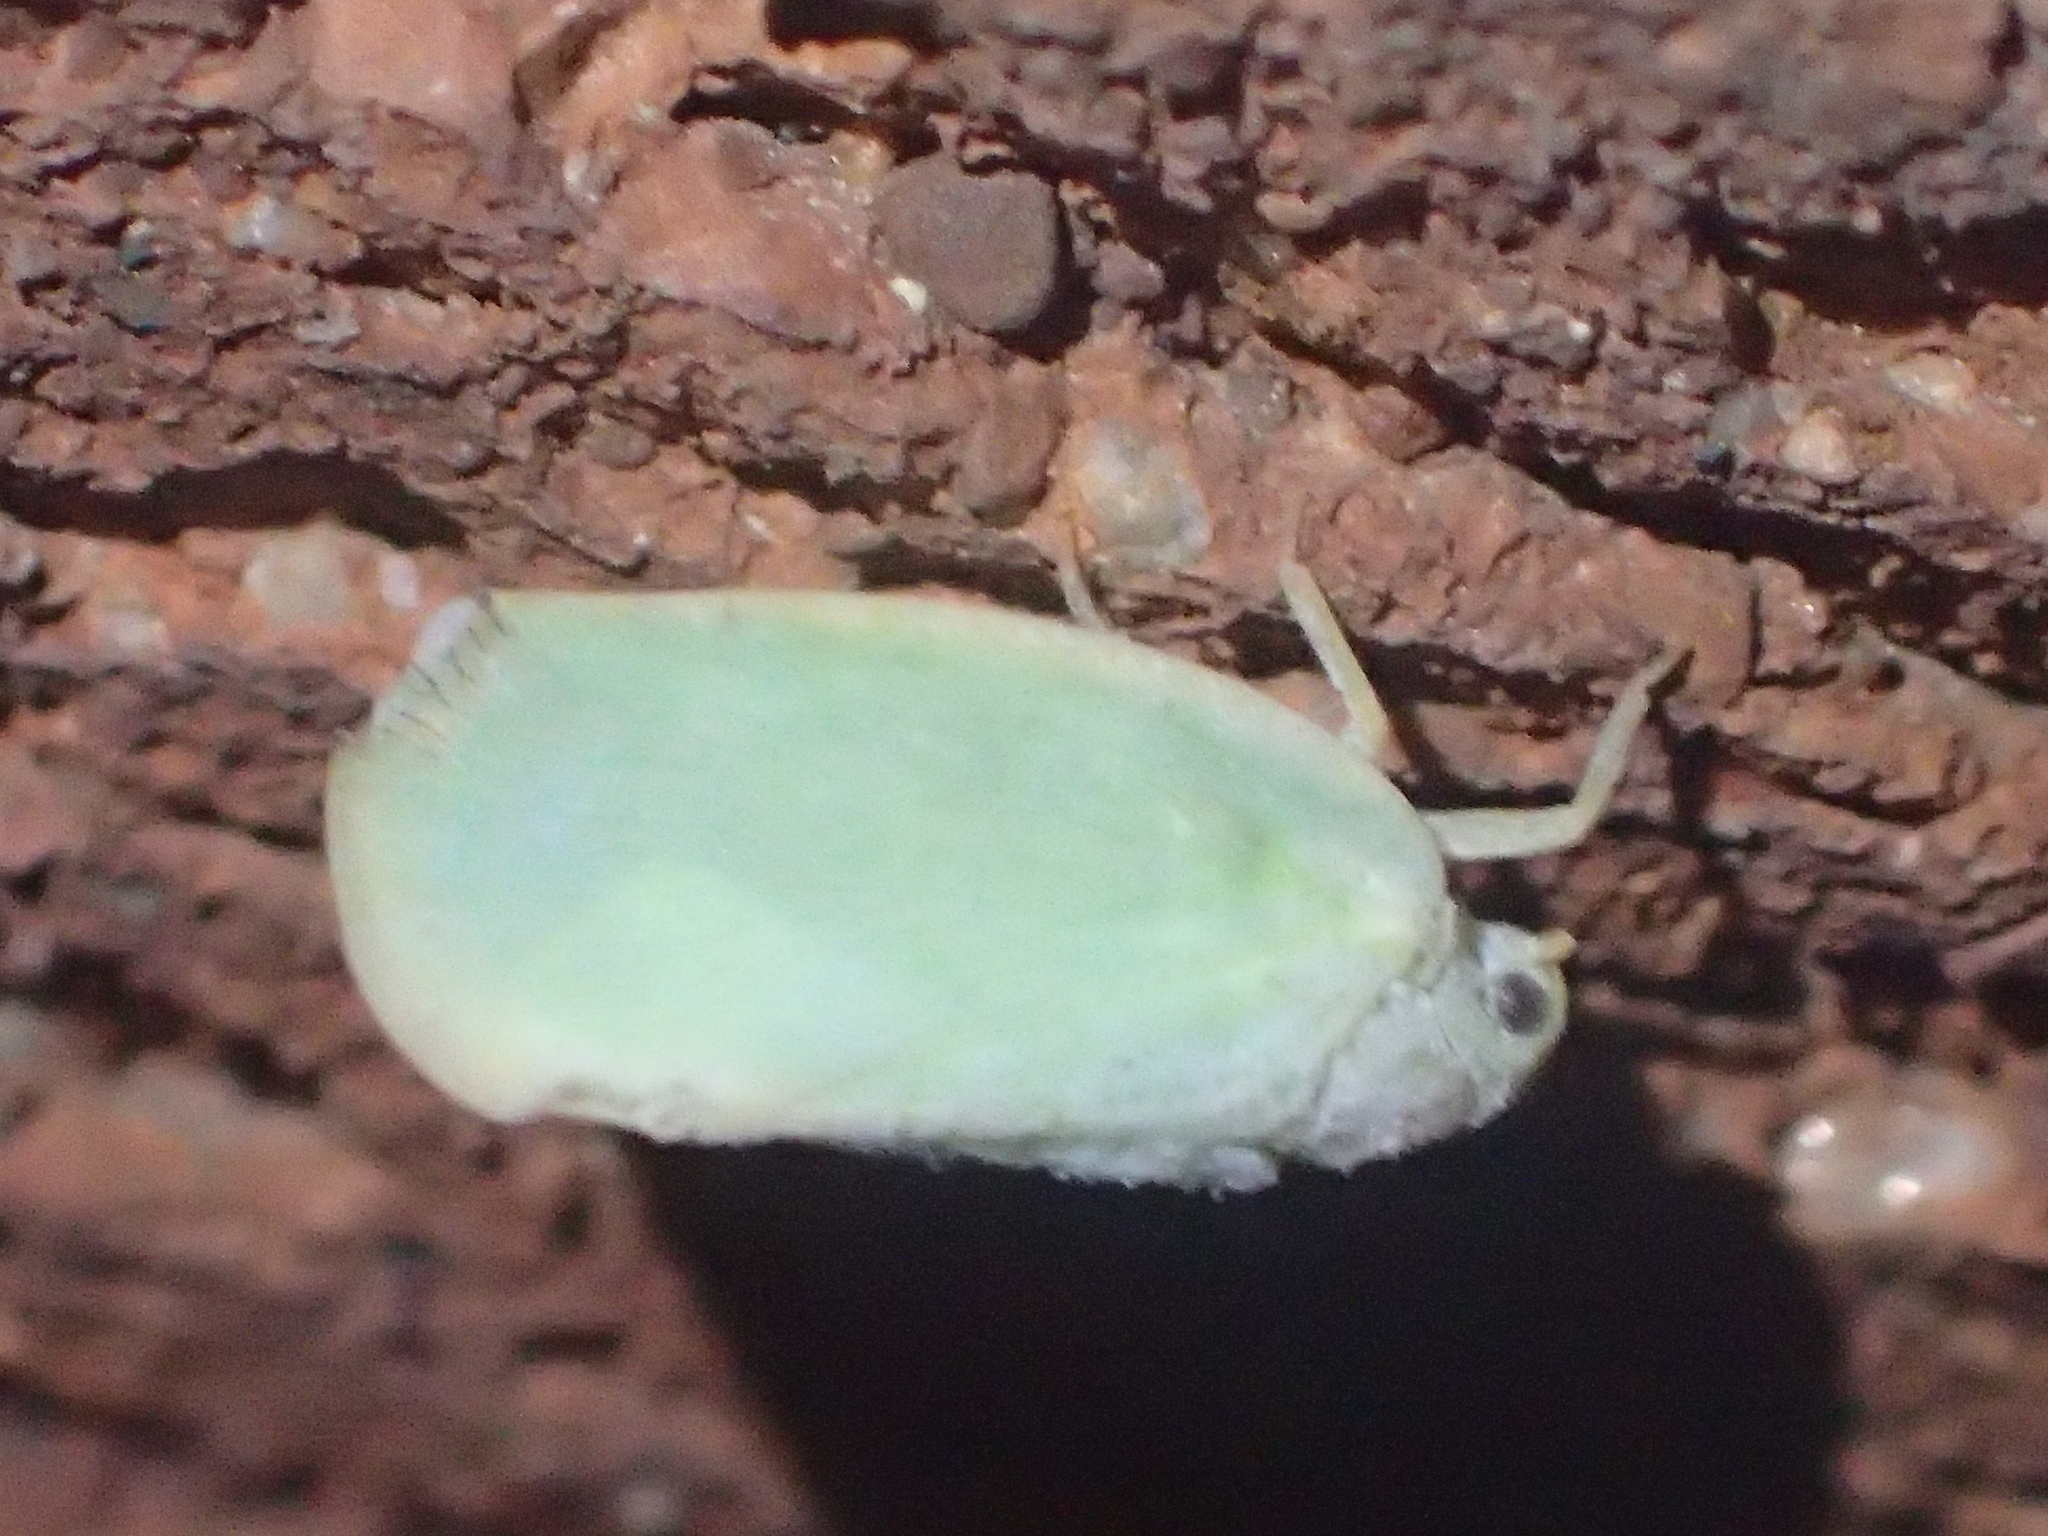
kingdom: Animalia
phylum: Arthropoda
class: Insecta
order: Hemiptera
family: Flatidae
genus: Ormenoides
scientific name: Ormenoides venusta
